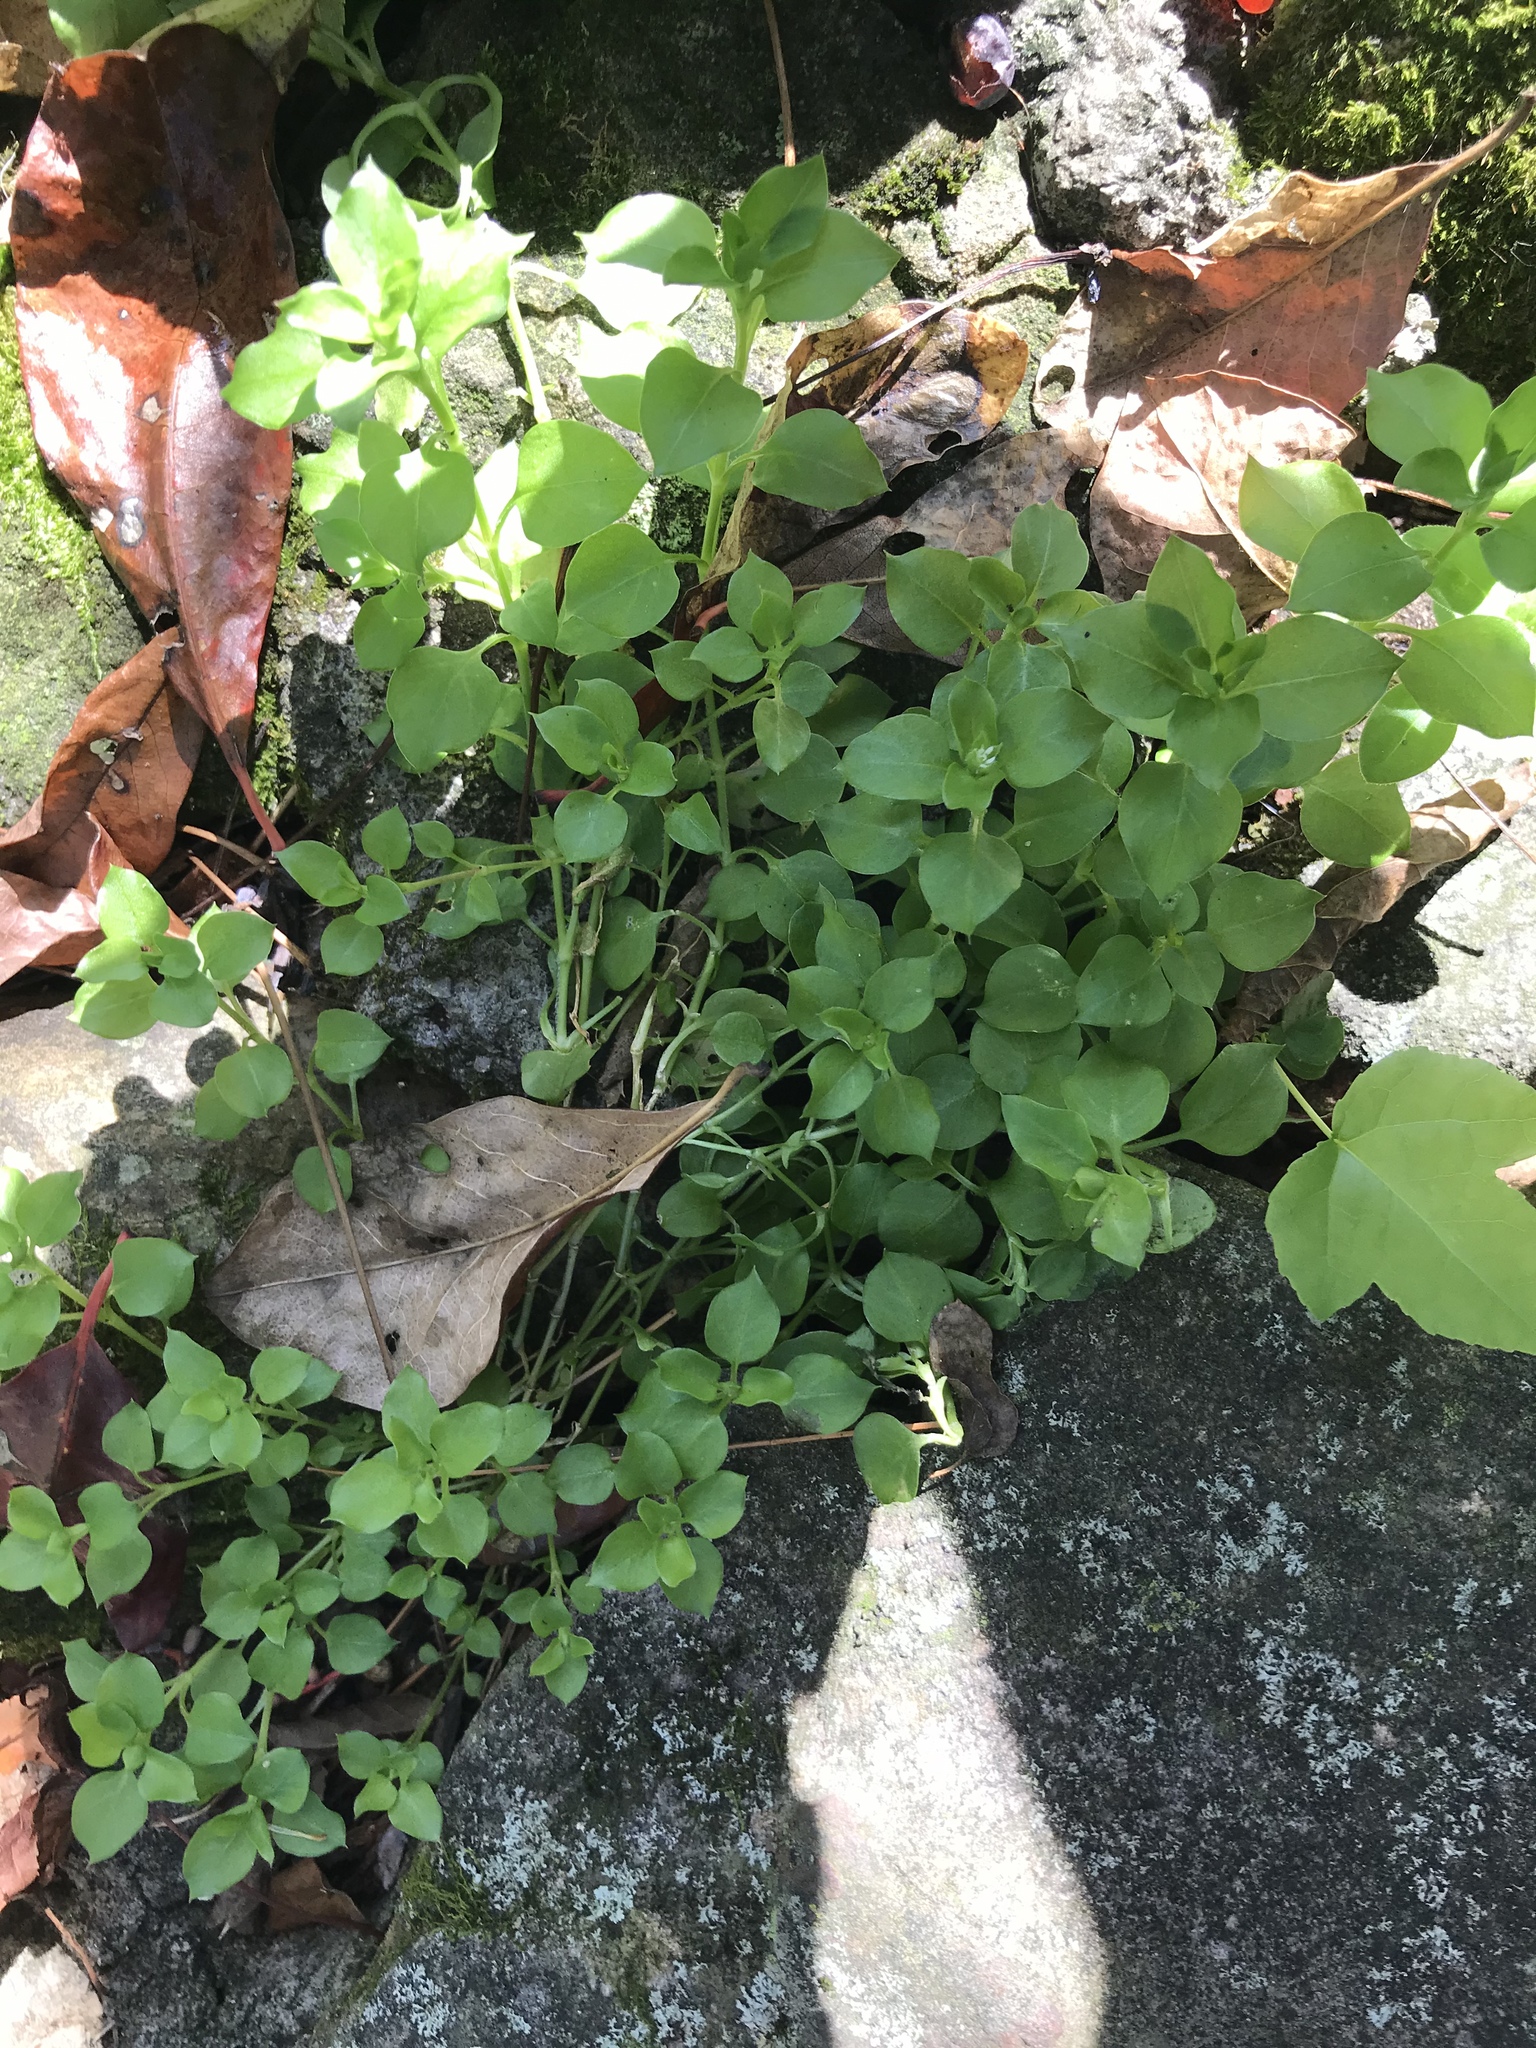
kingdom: Plantae
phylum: Tracheophyta
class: Magnoliopsida
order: Caryophyllales
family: Caryophyllaceae
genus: Stellaria
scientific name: Stellaria media
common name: Common chickweed
